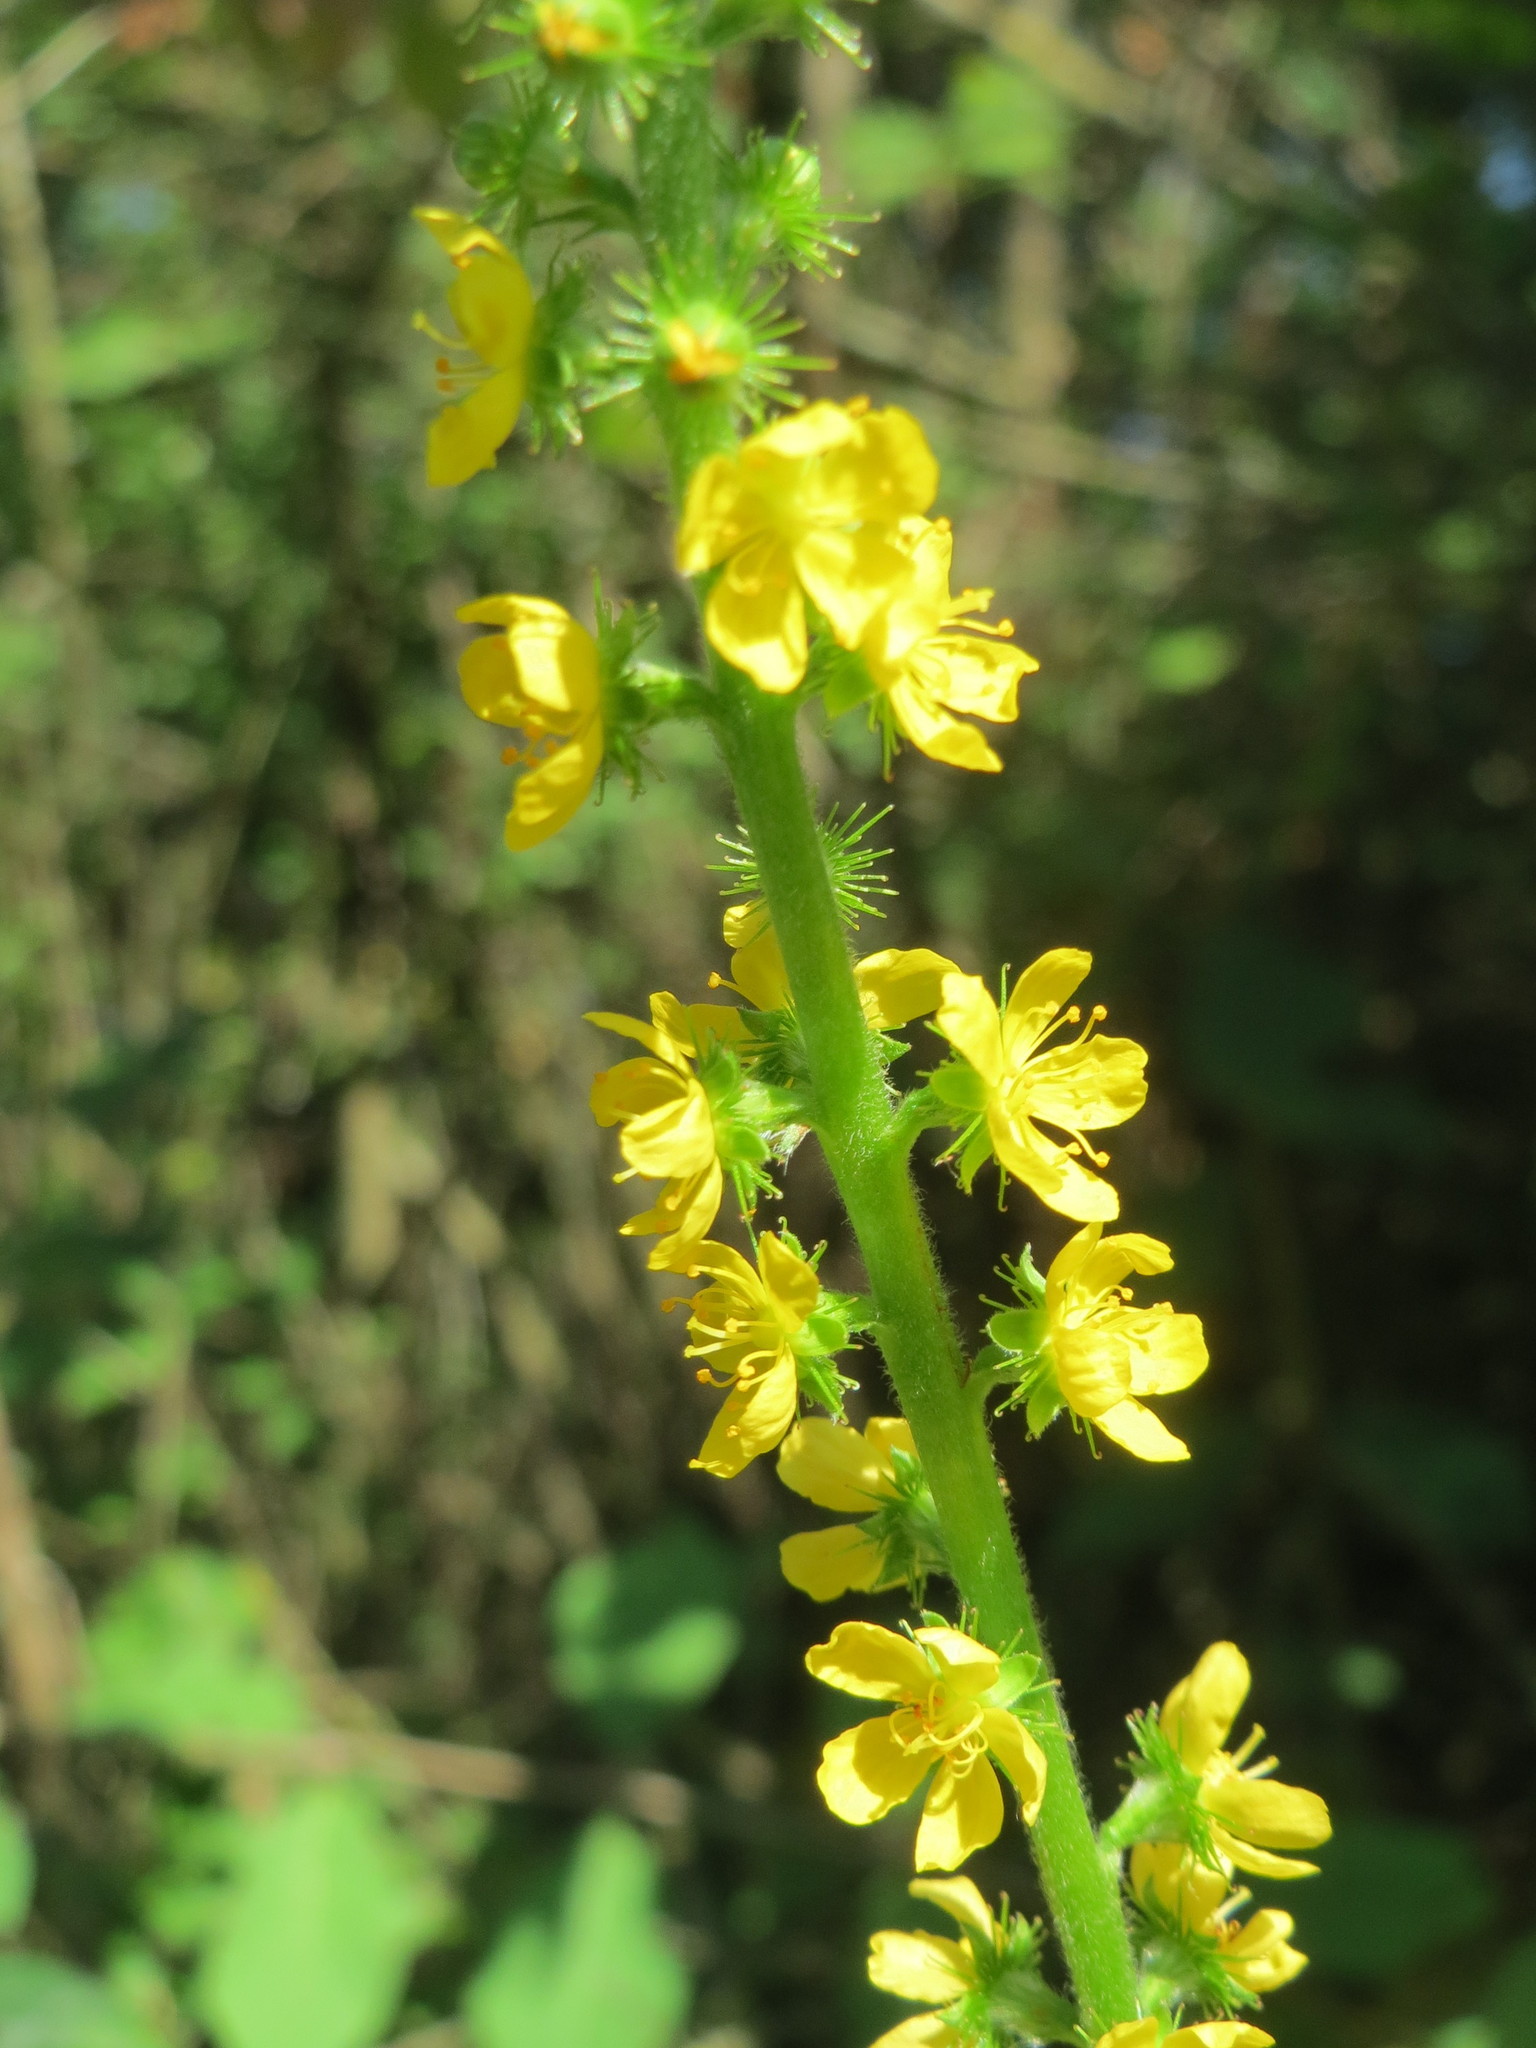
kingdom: Plantae
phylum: Tracheophyta
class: Magnoliopsida
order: Rosales
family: Rosaceae
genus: Agrimonia
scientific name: Agrimonia eupatoria
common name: Agrimony
